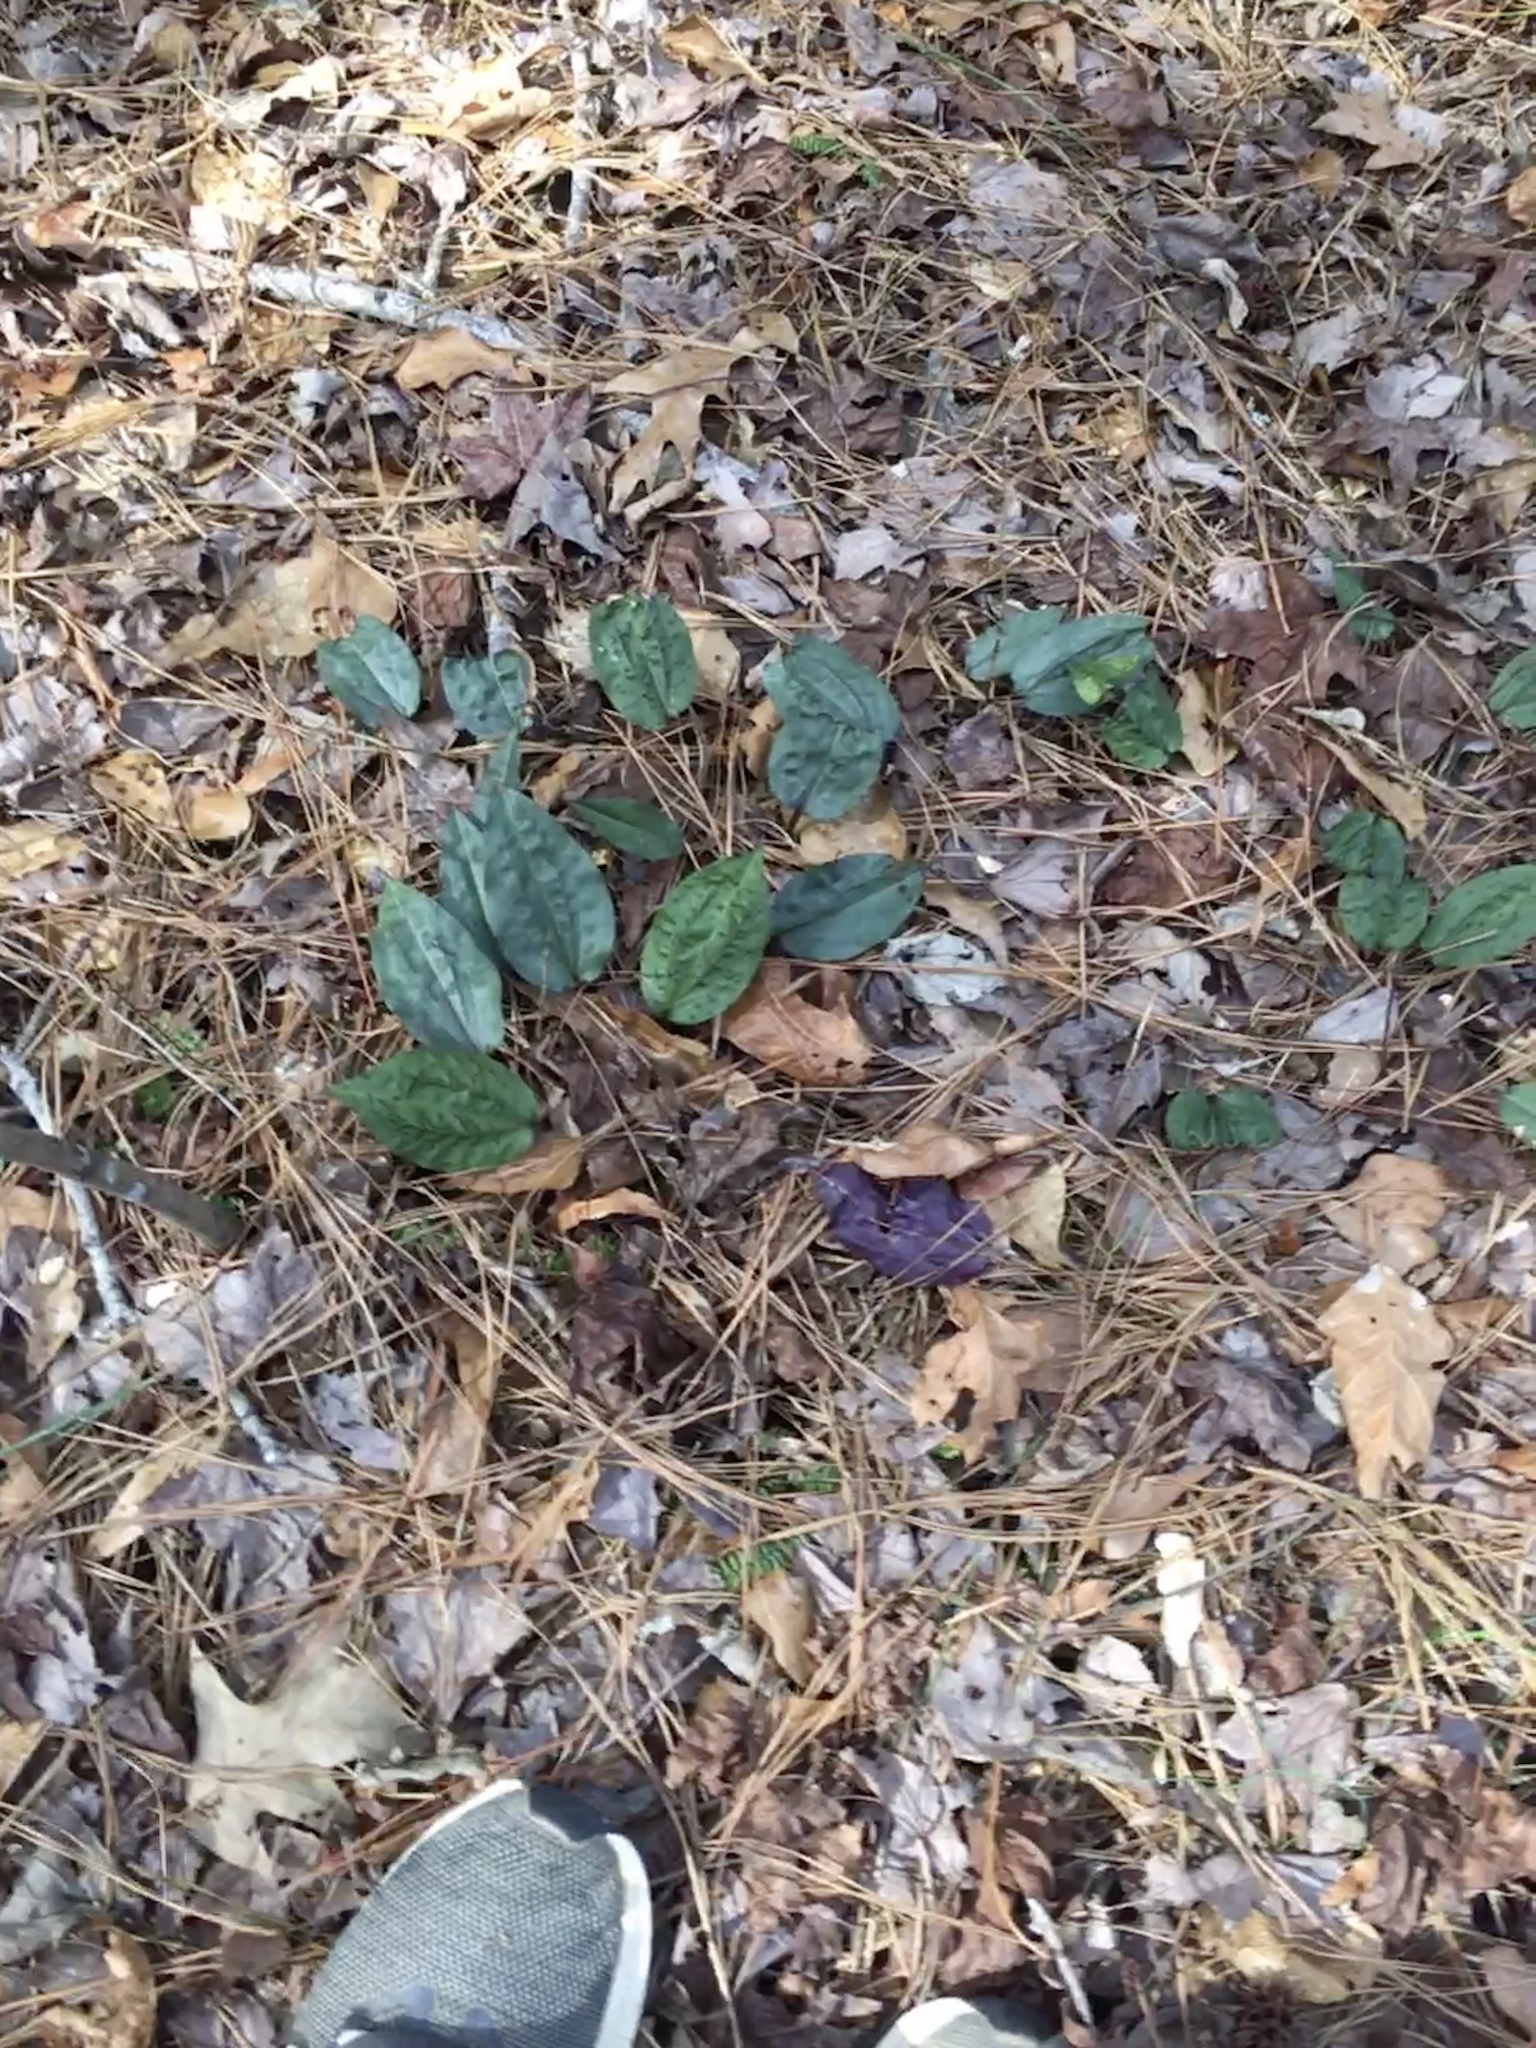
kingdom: Plantae
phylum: Tracheophyta
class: Liliopsida
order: Asparagales
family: Orchidaceae
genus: Tipularia
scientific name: Tipularia discolor
